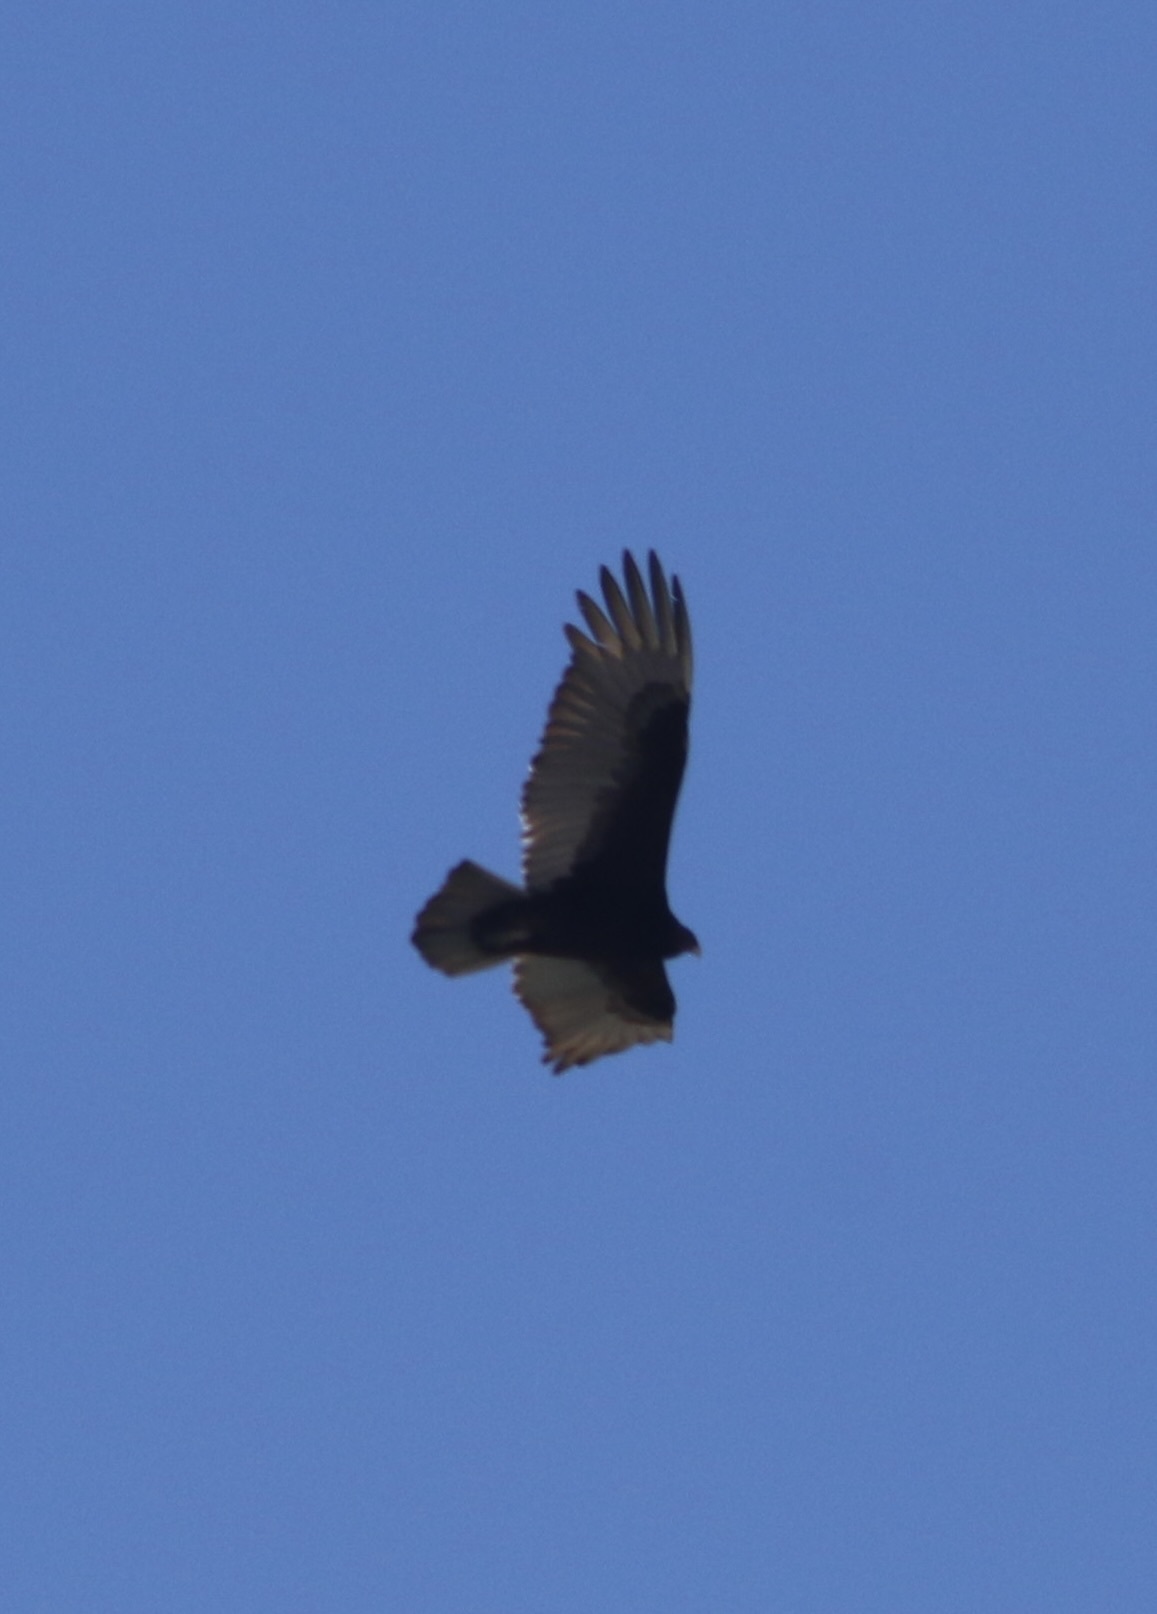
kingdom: Animalia
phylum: Chordata
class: Aves
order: Accipitriformes
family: Cathartidae
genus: Cathartes
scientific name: Cathartes aura
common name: Turkey vulture
